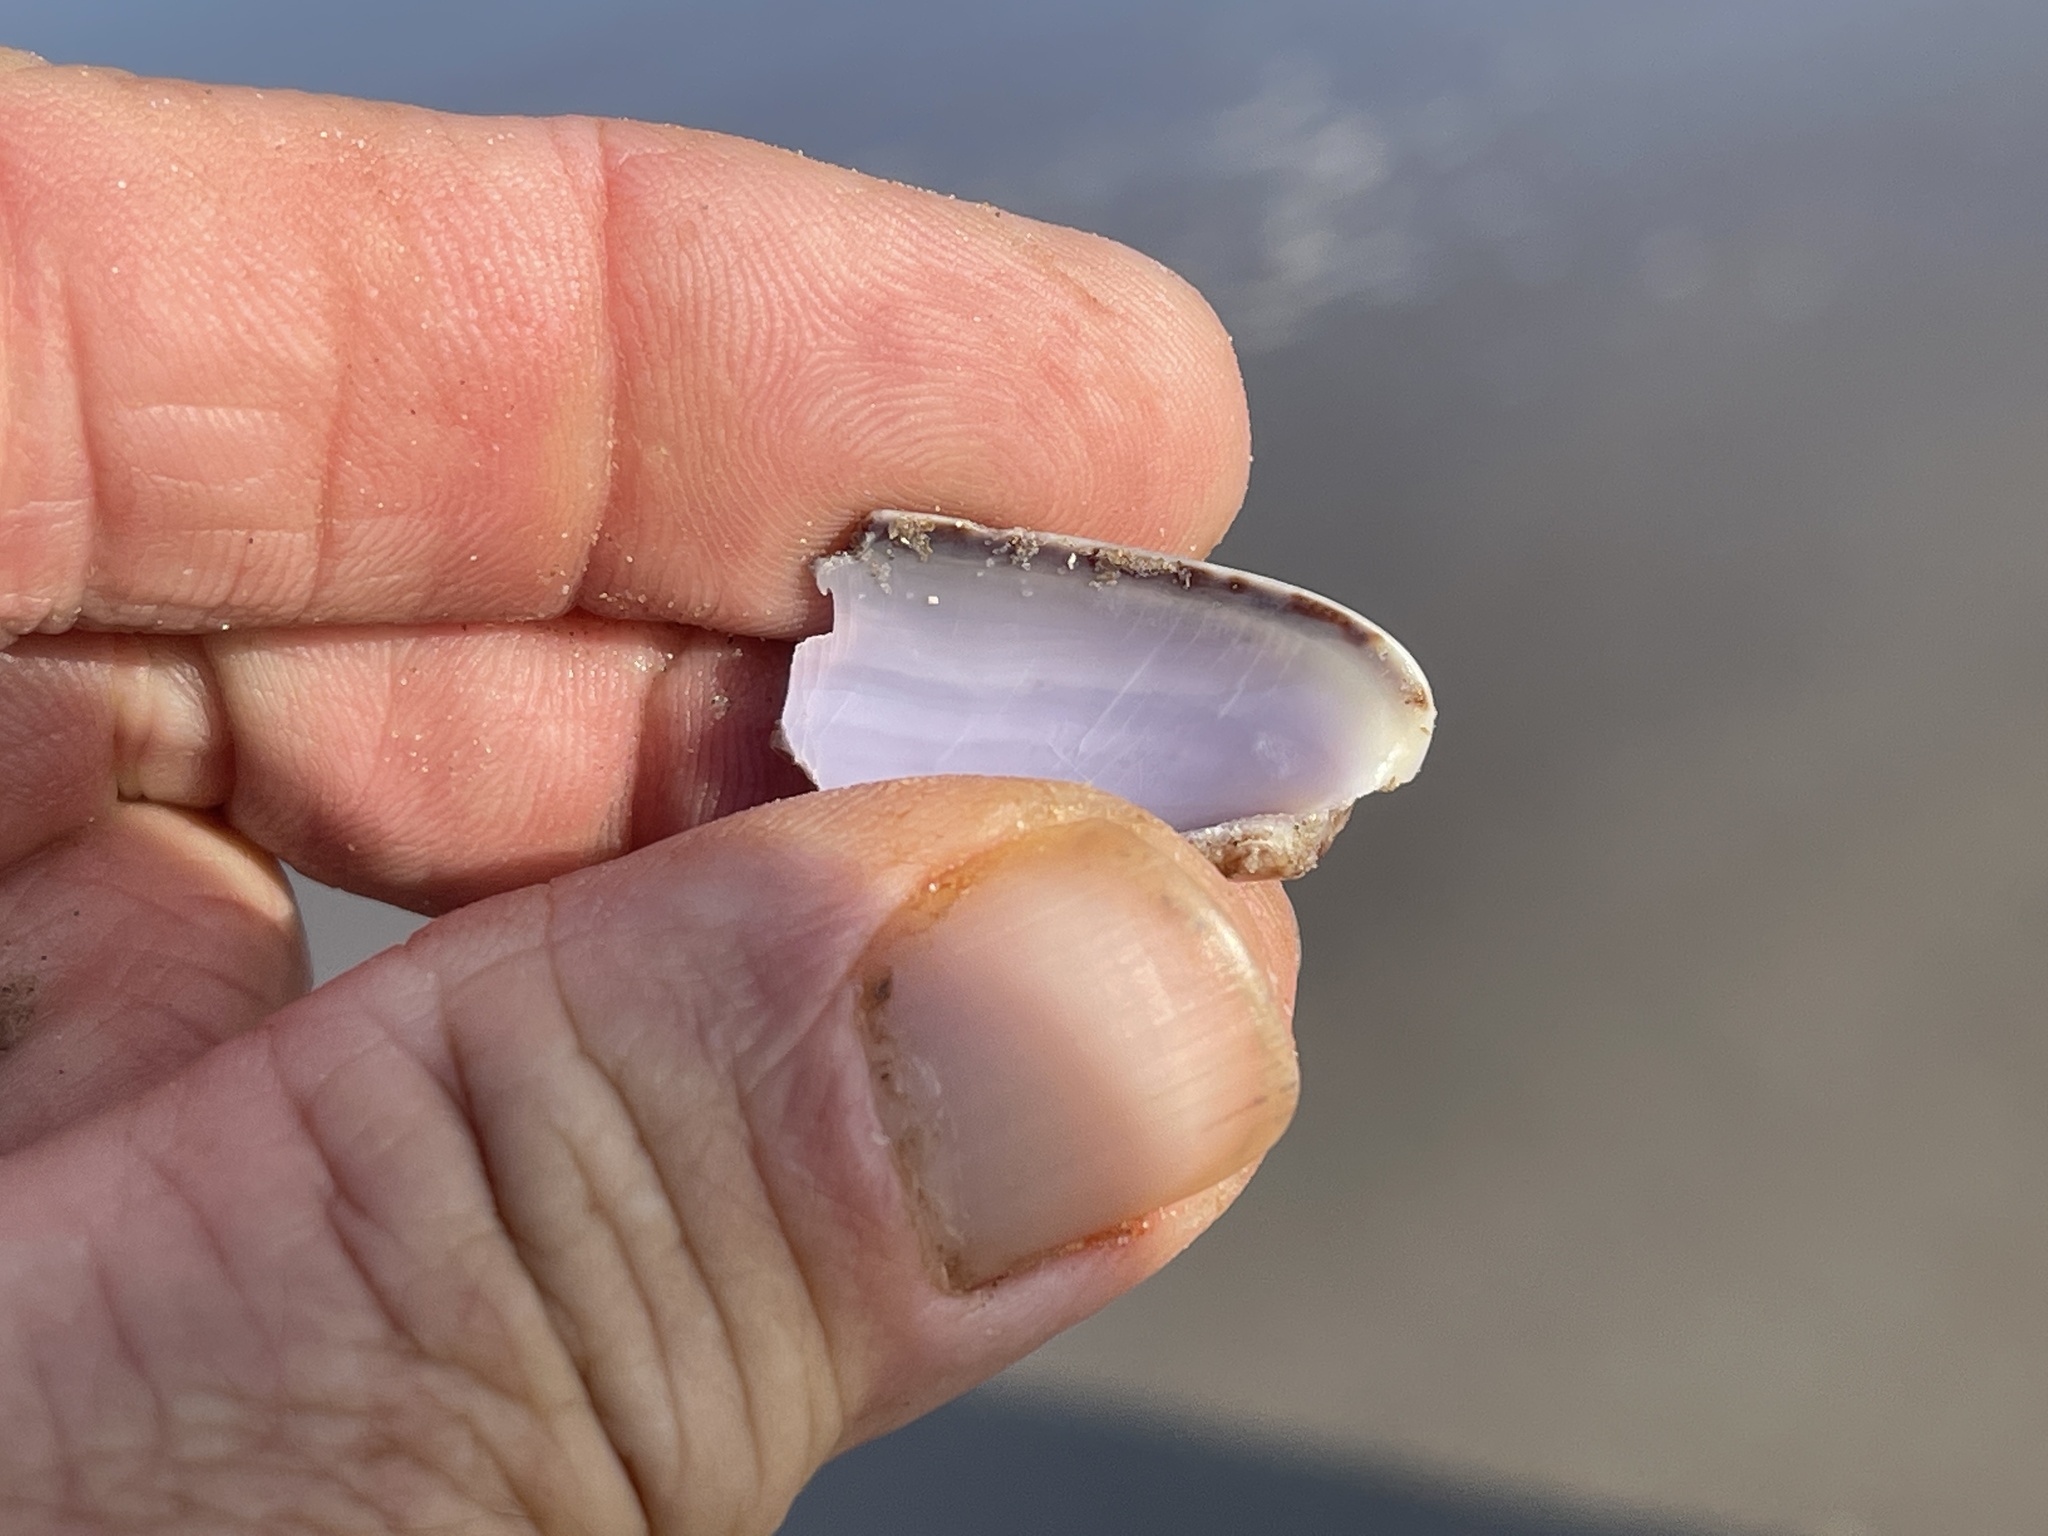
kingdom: Animalia
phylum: Mollusca
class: Gastropoda
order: Neogastropoda
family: Olividae
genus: Oliva
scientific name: Oliva sayana
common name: Lettered olive
